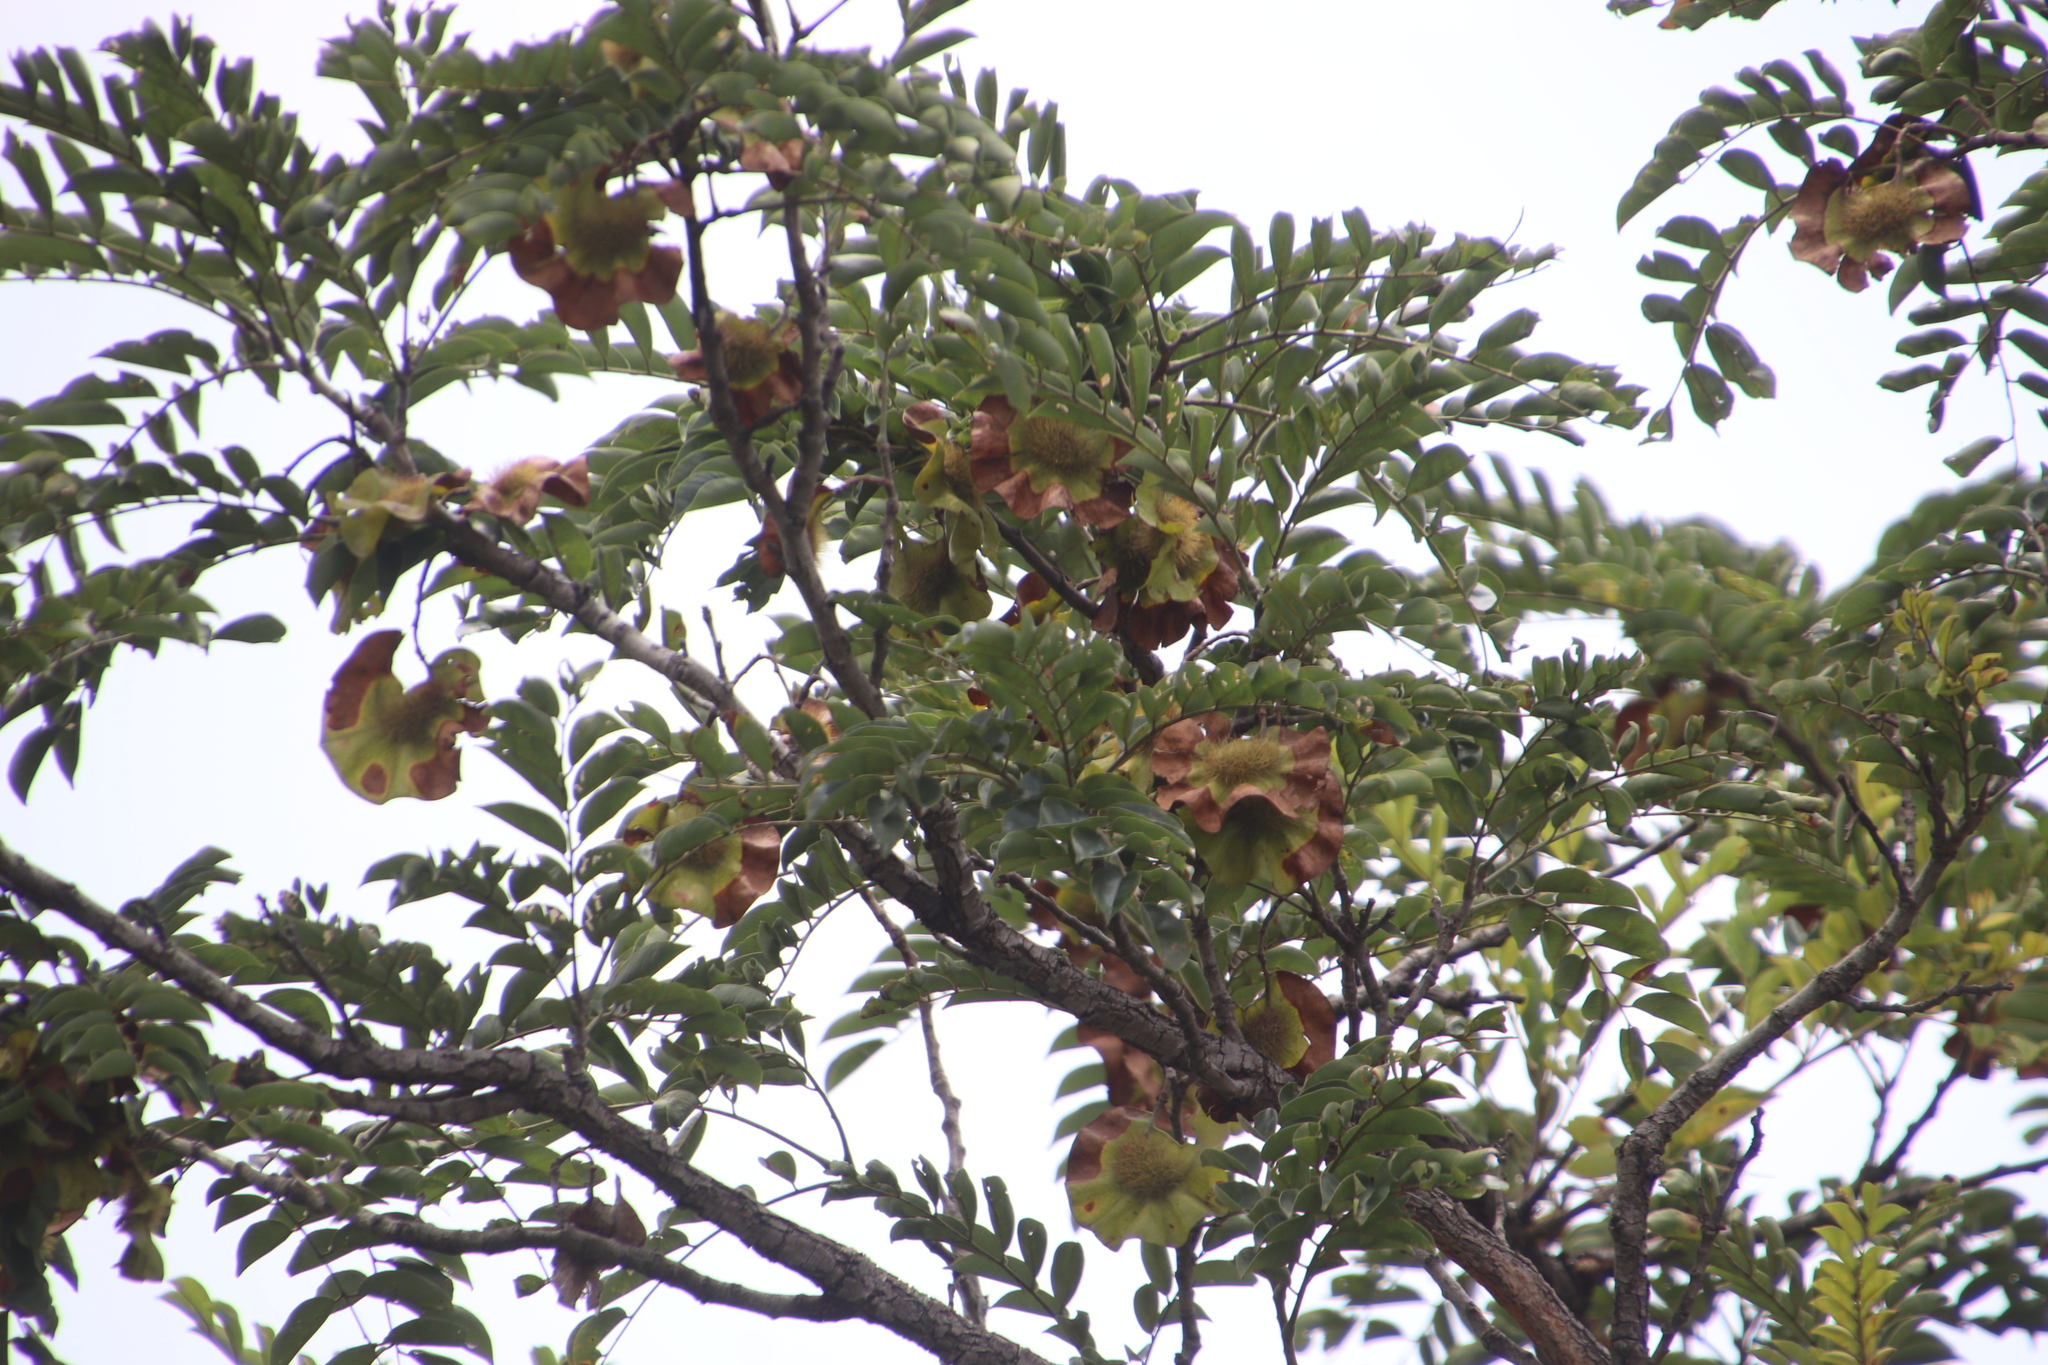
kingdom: Plantae
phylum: Tracheophyta
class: Magnoliopsida
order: Fabales
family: Fabaceae
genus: Pterocarpus
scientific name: Pterocarpus angolensis
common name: Bloodwood tree
